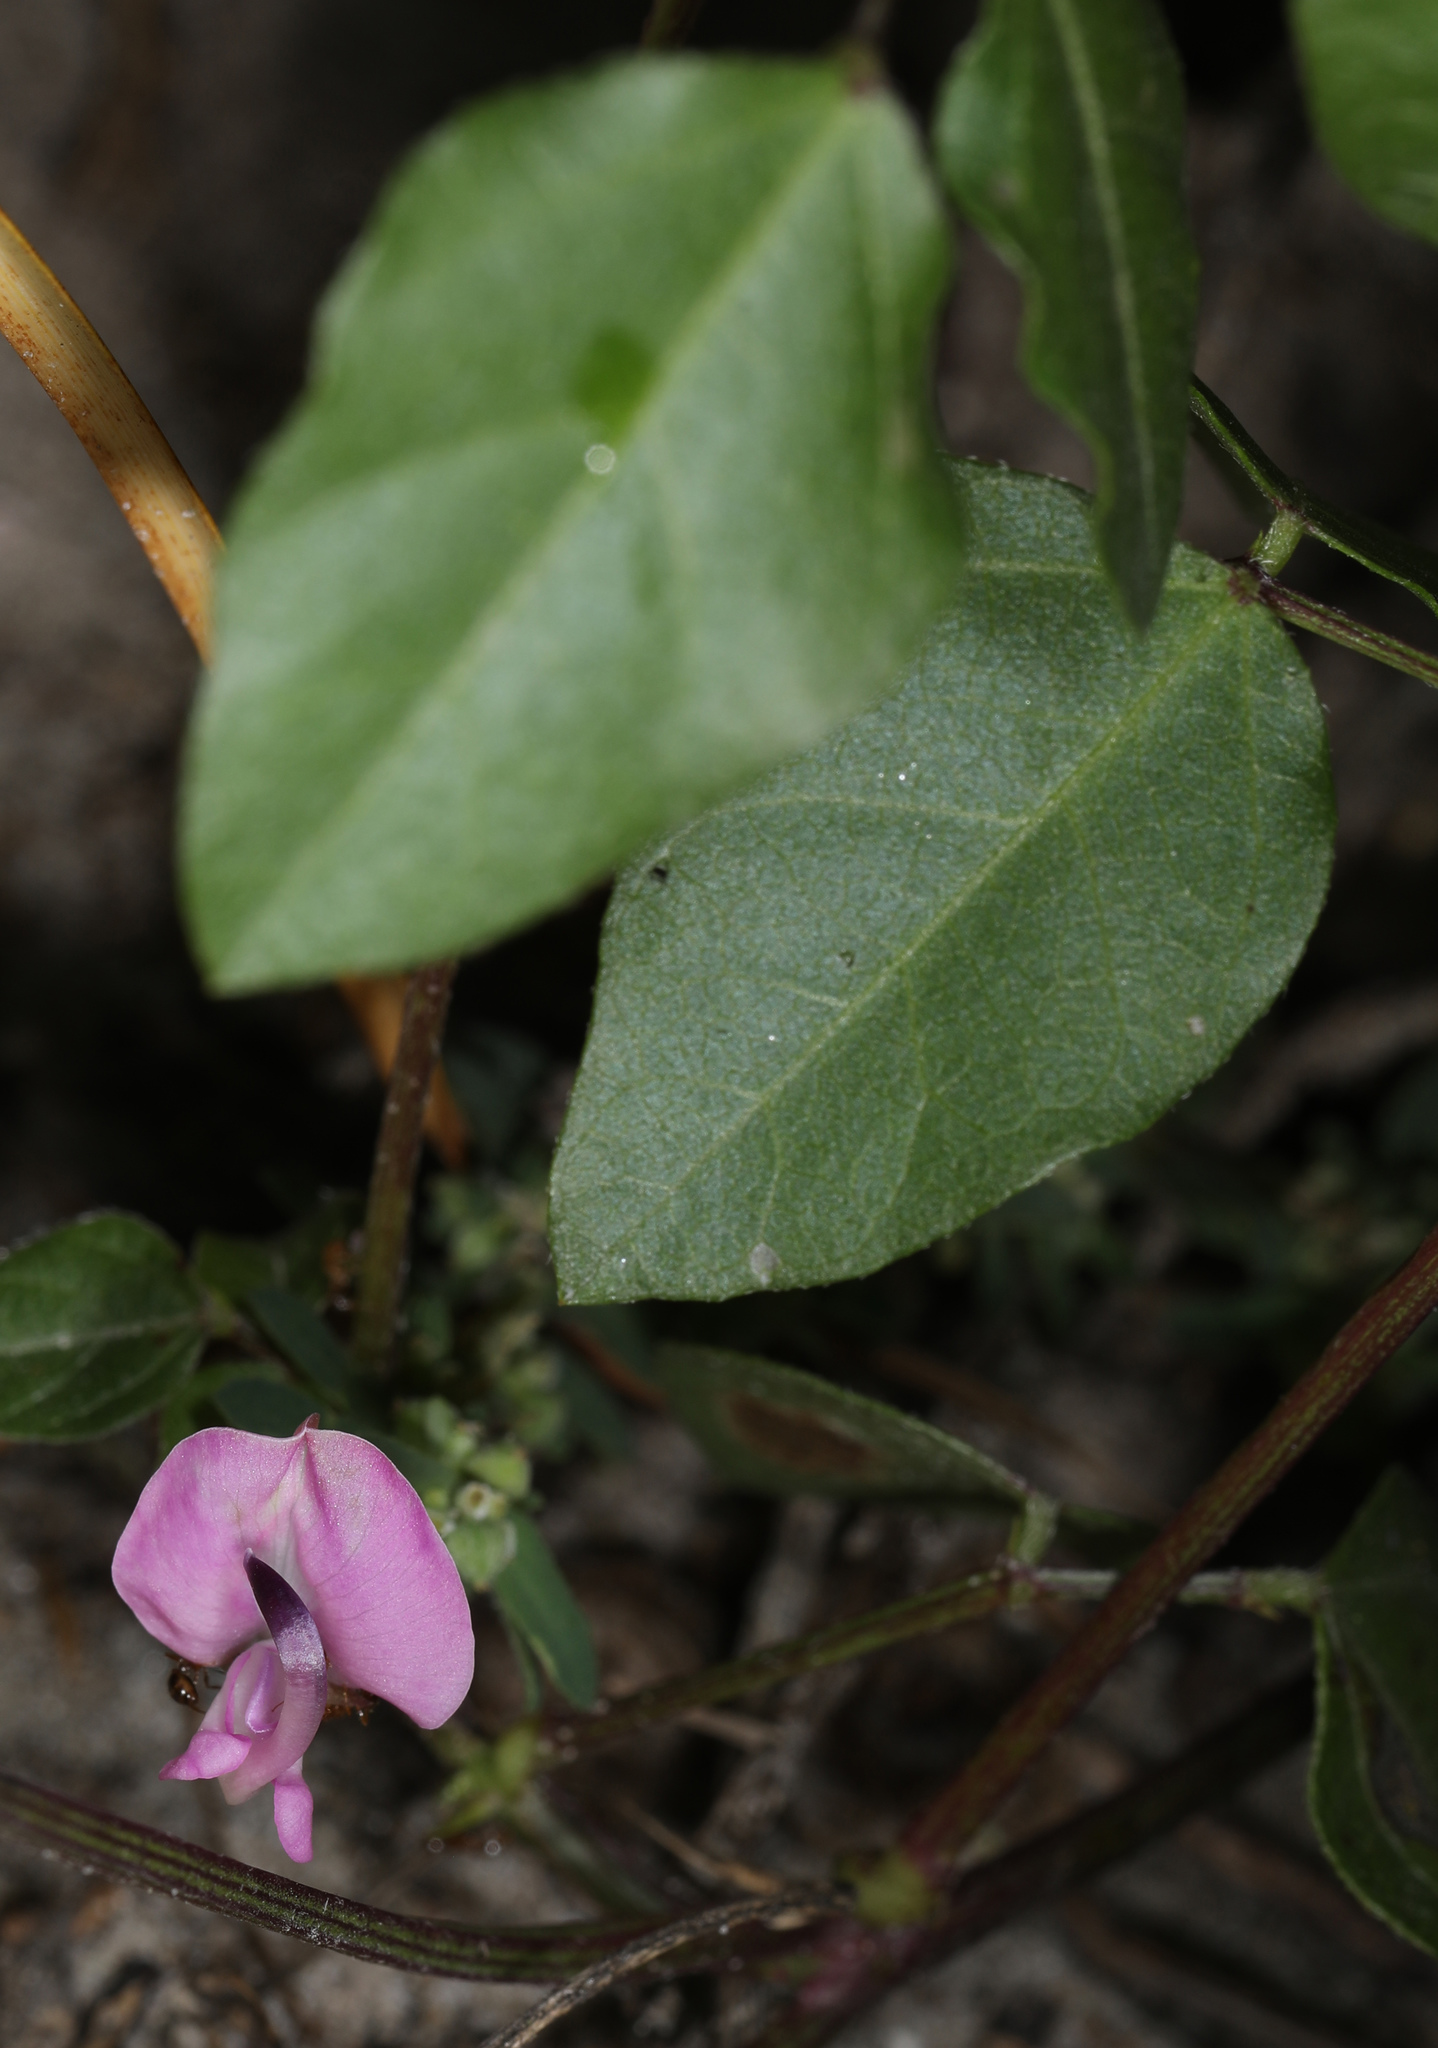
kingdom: Plantae
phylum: Tracheophyta
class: Magnoliopsida
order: Fabales
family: Fabaceae
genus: Strophostyles
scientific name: Strophostyles helvola
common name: Trailing wild bean
